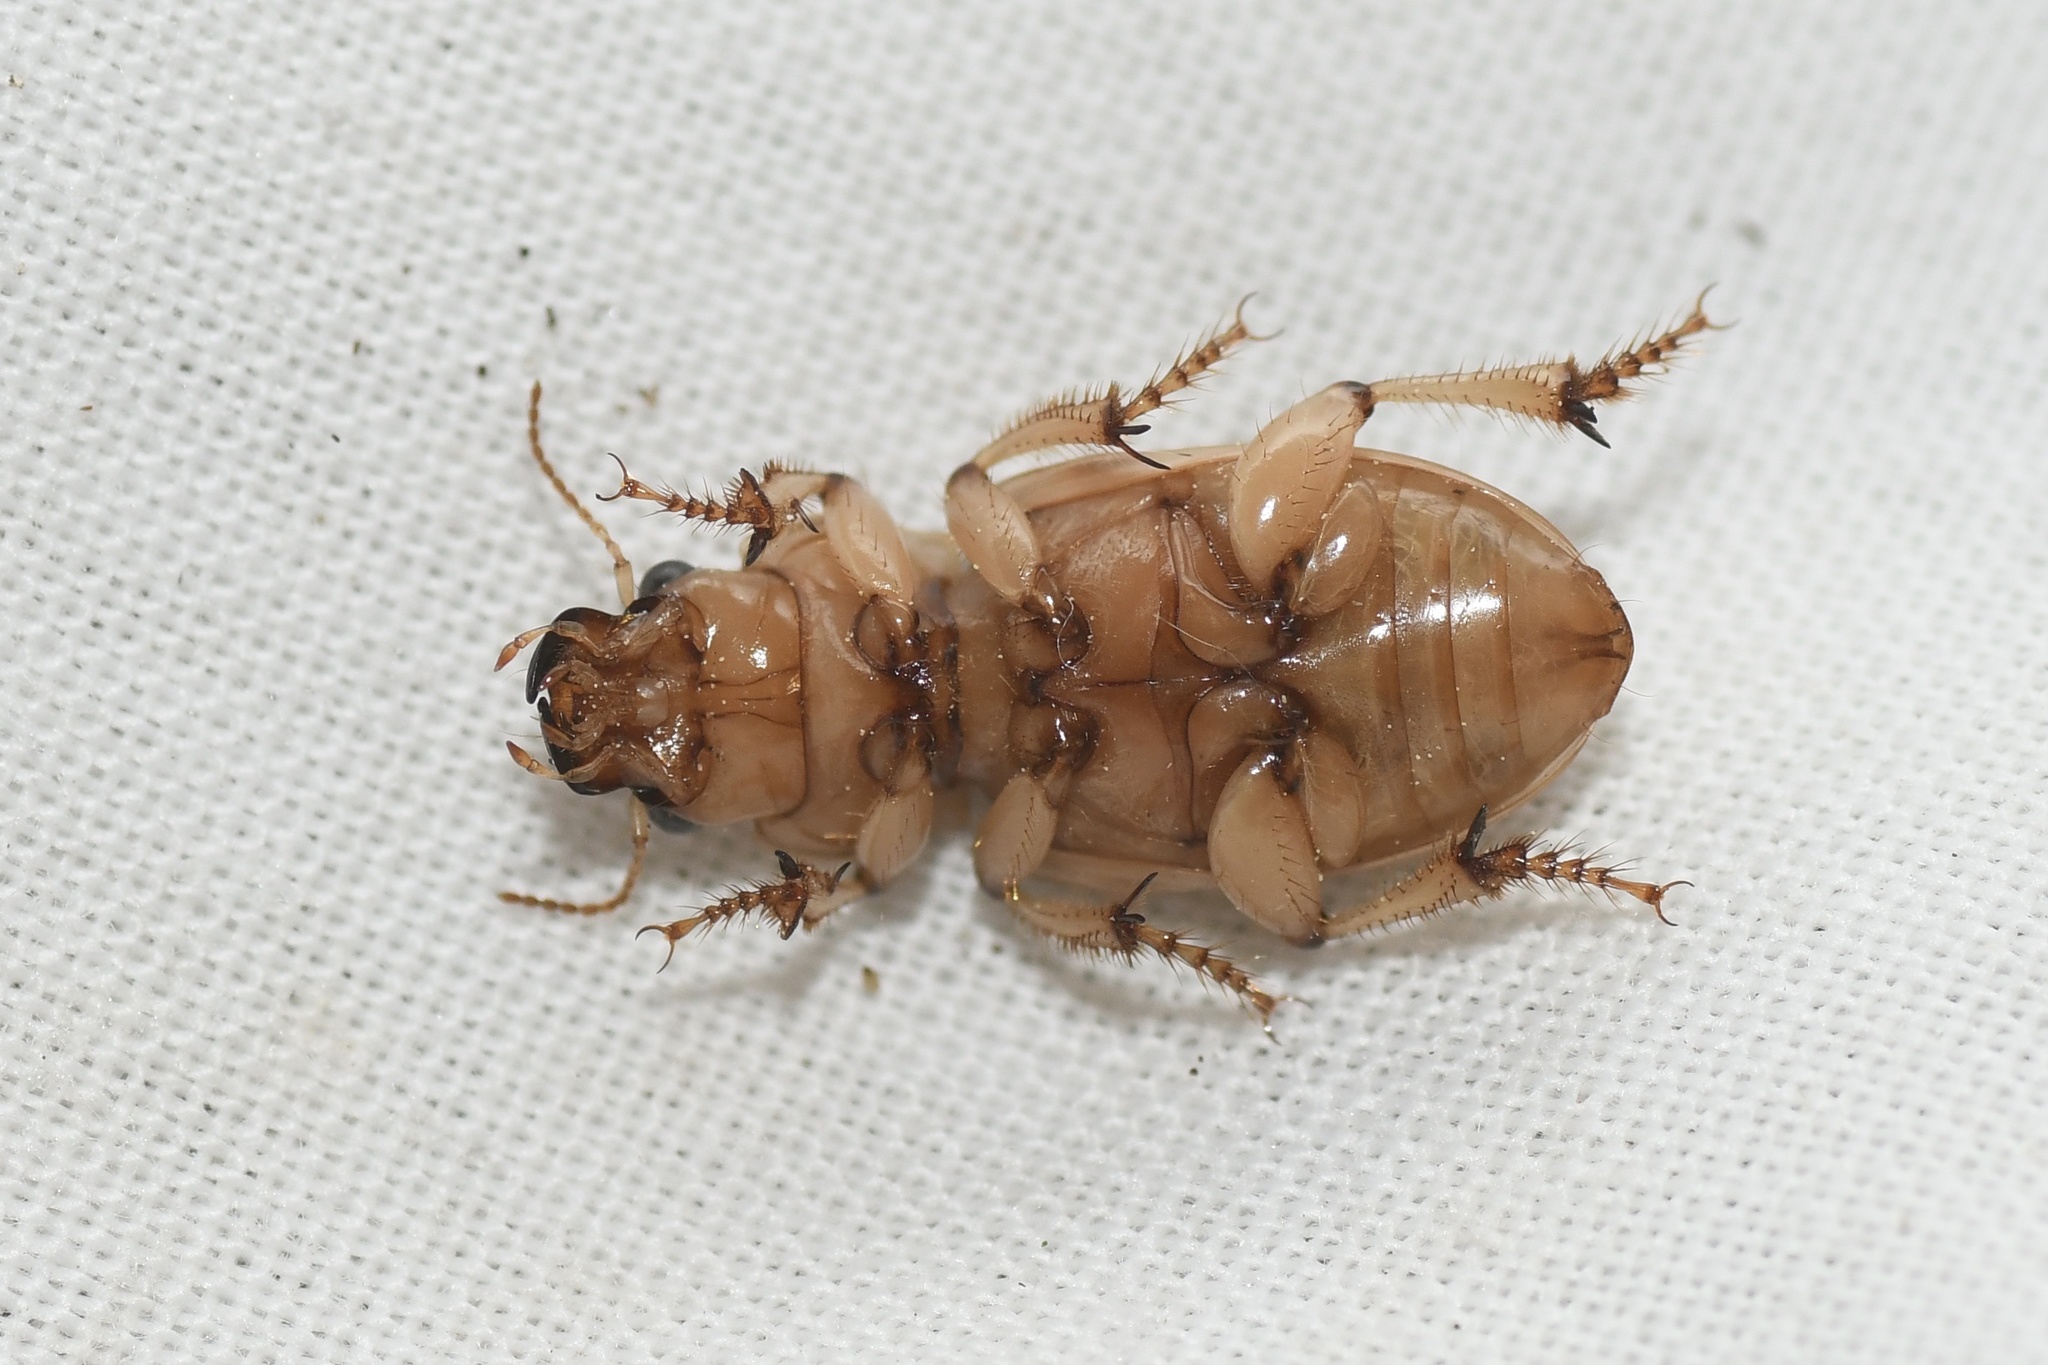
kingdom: Animalia
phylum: Arthropoda
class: Insecta
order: Coleoptera
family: Carabidae
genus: Geopinus
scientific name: Geopinus incrassatus
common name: Homely geopinus
